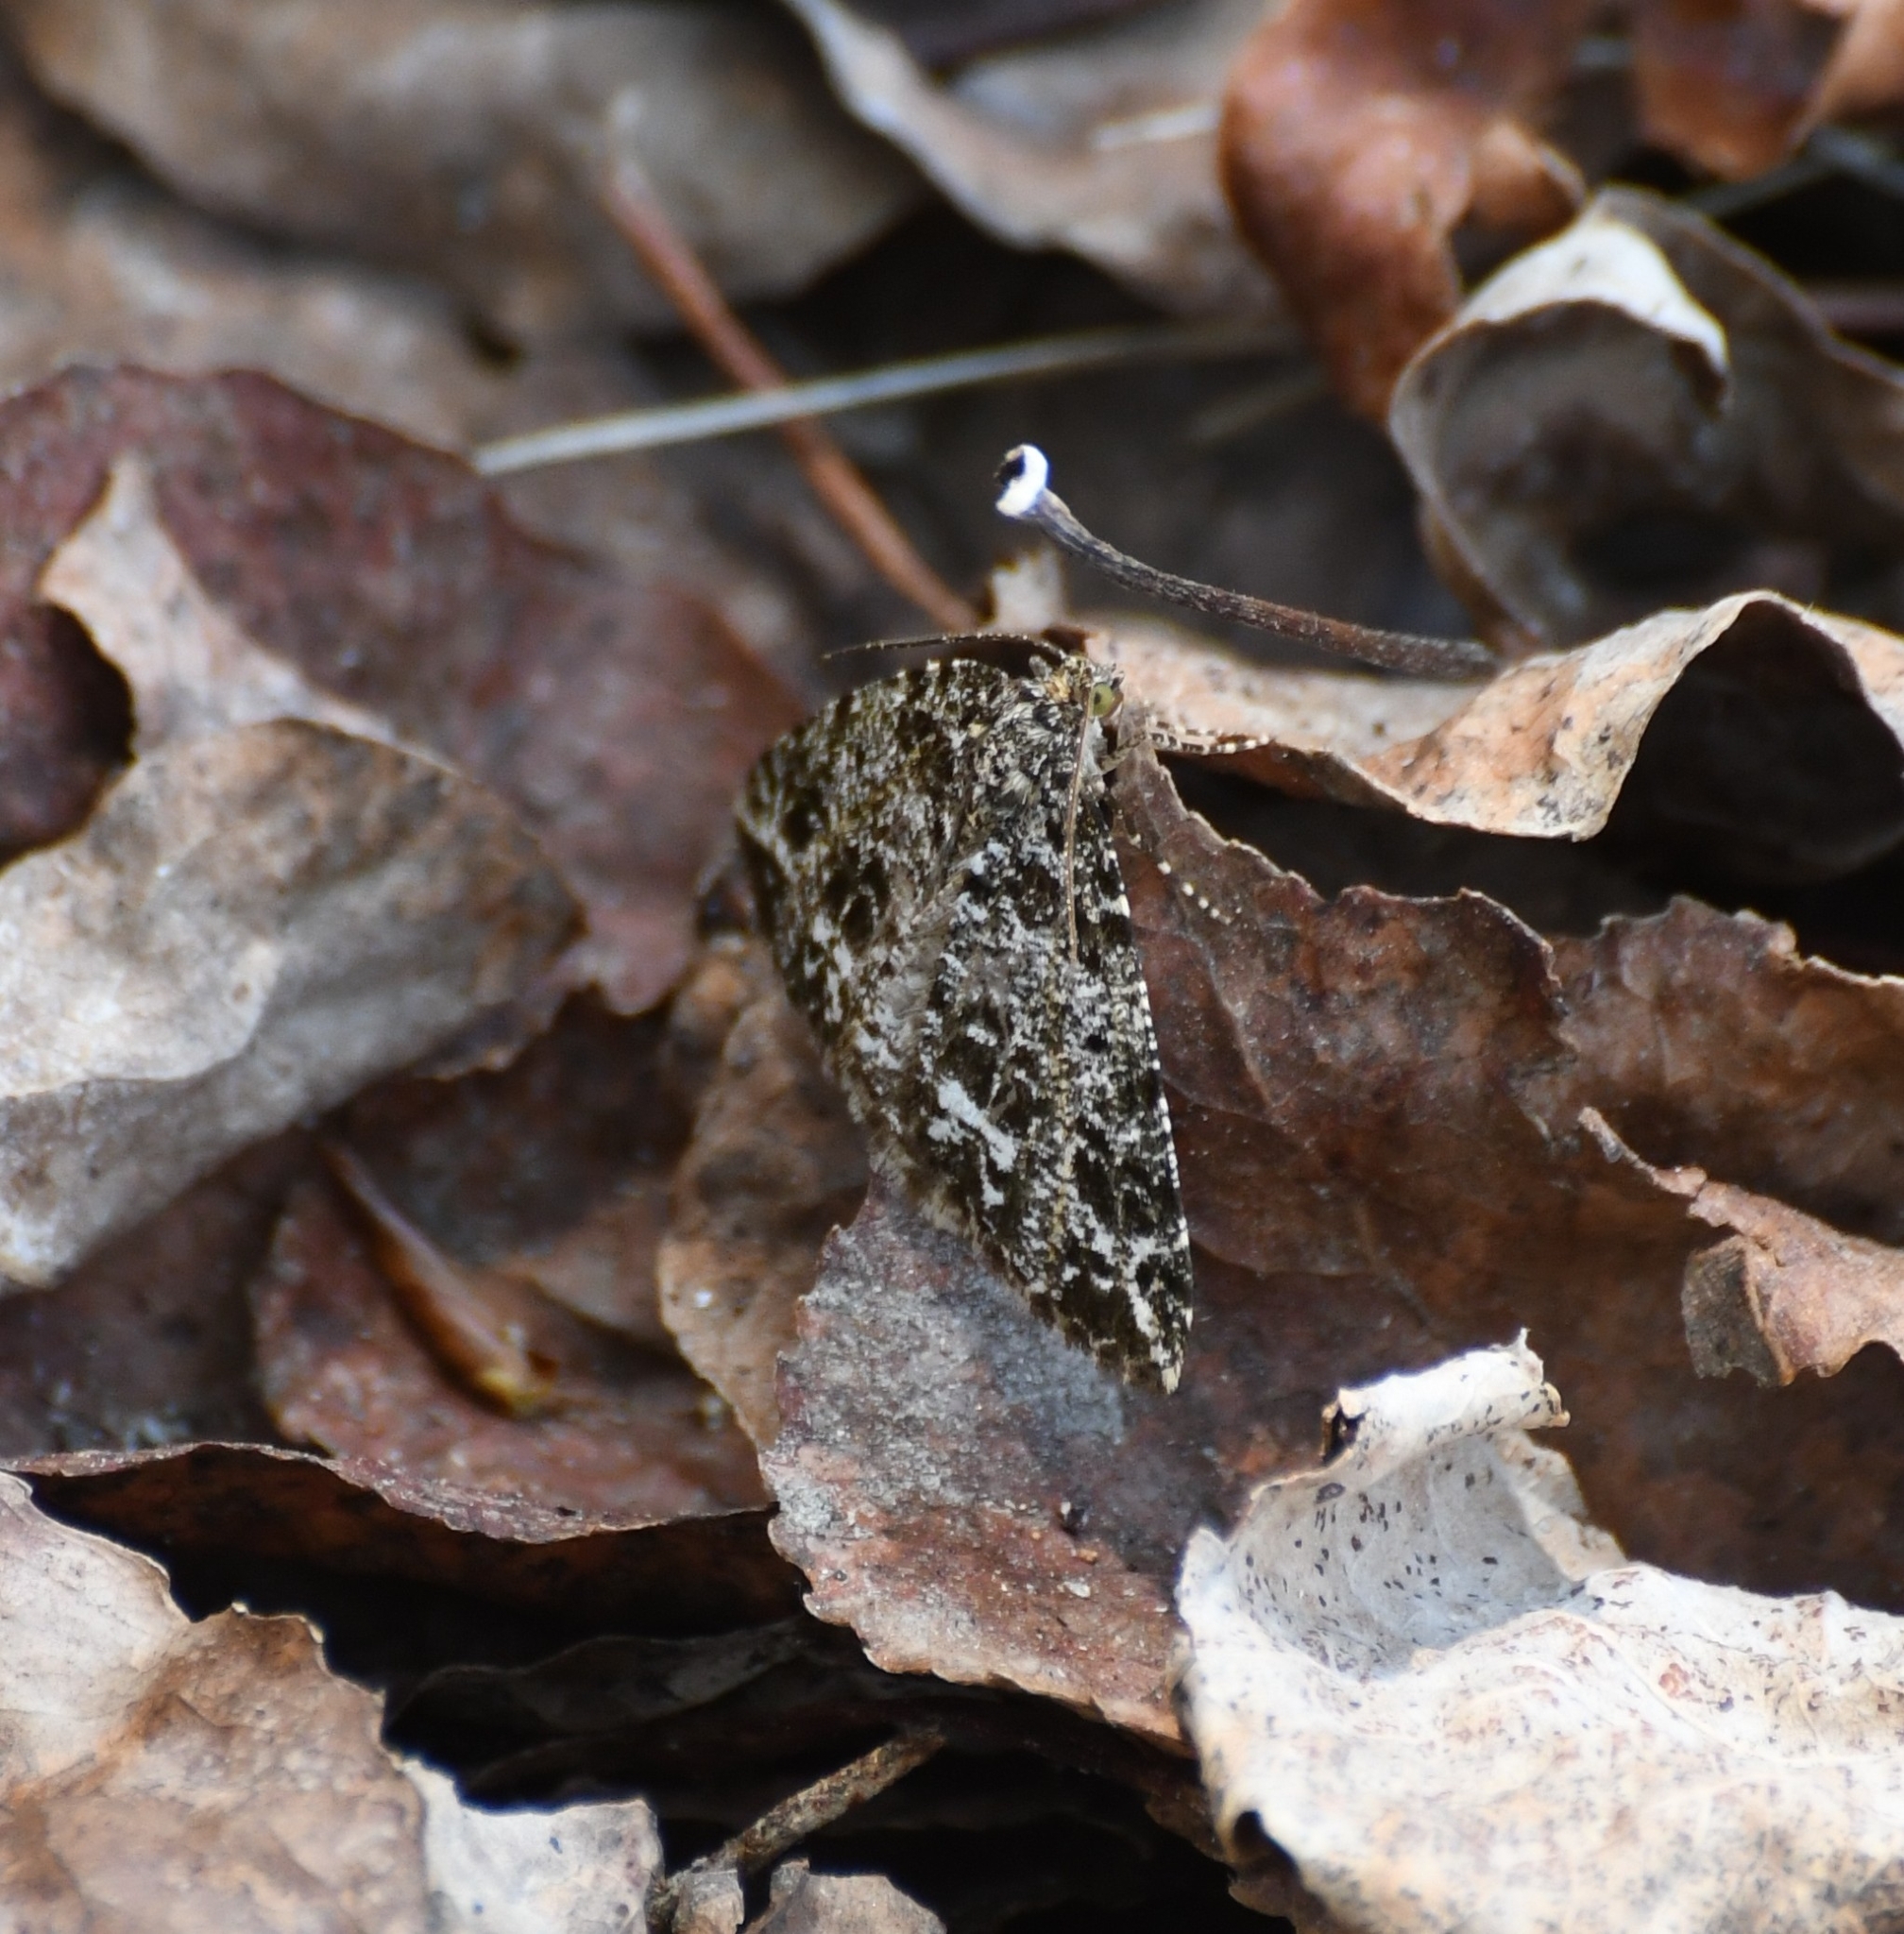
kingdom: Animalia
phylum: Arthropoda
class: Insecta
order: Lepidoptera
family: Geometridae
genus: Orthofidonia
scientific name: Orthofidonia tinctaria
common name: Marbled wave
